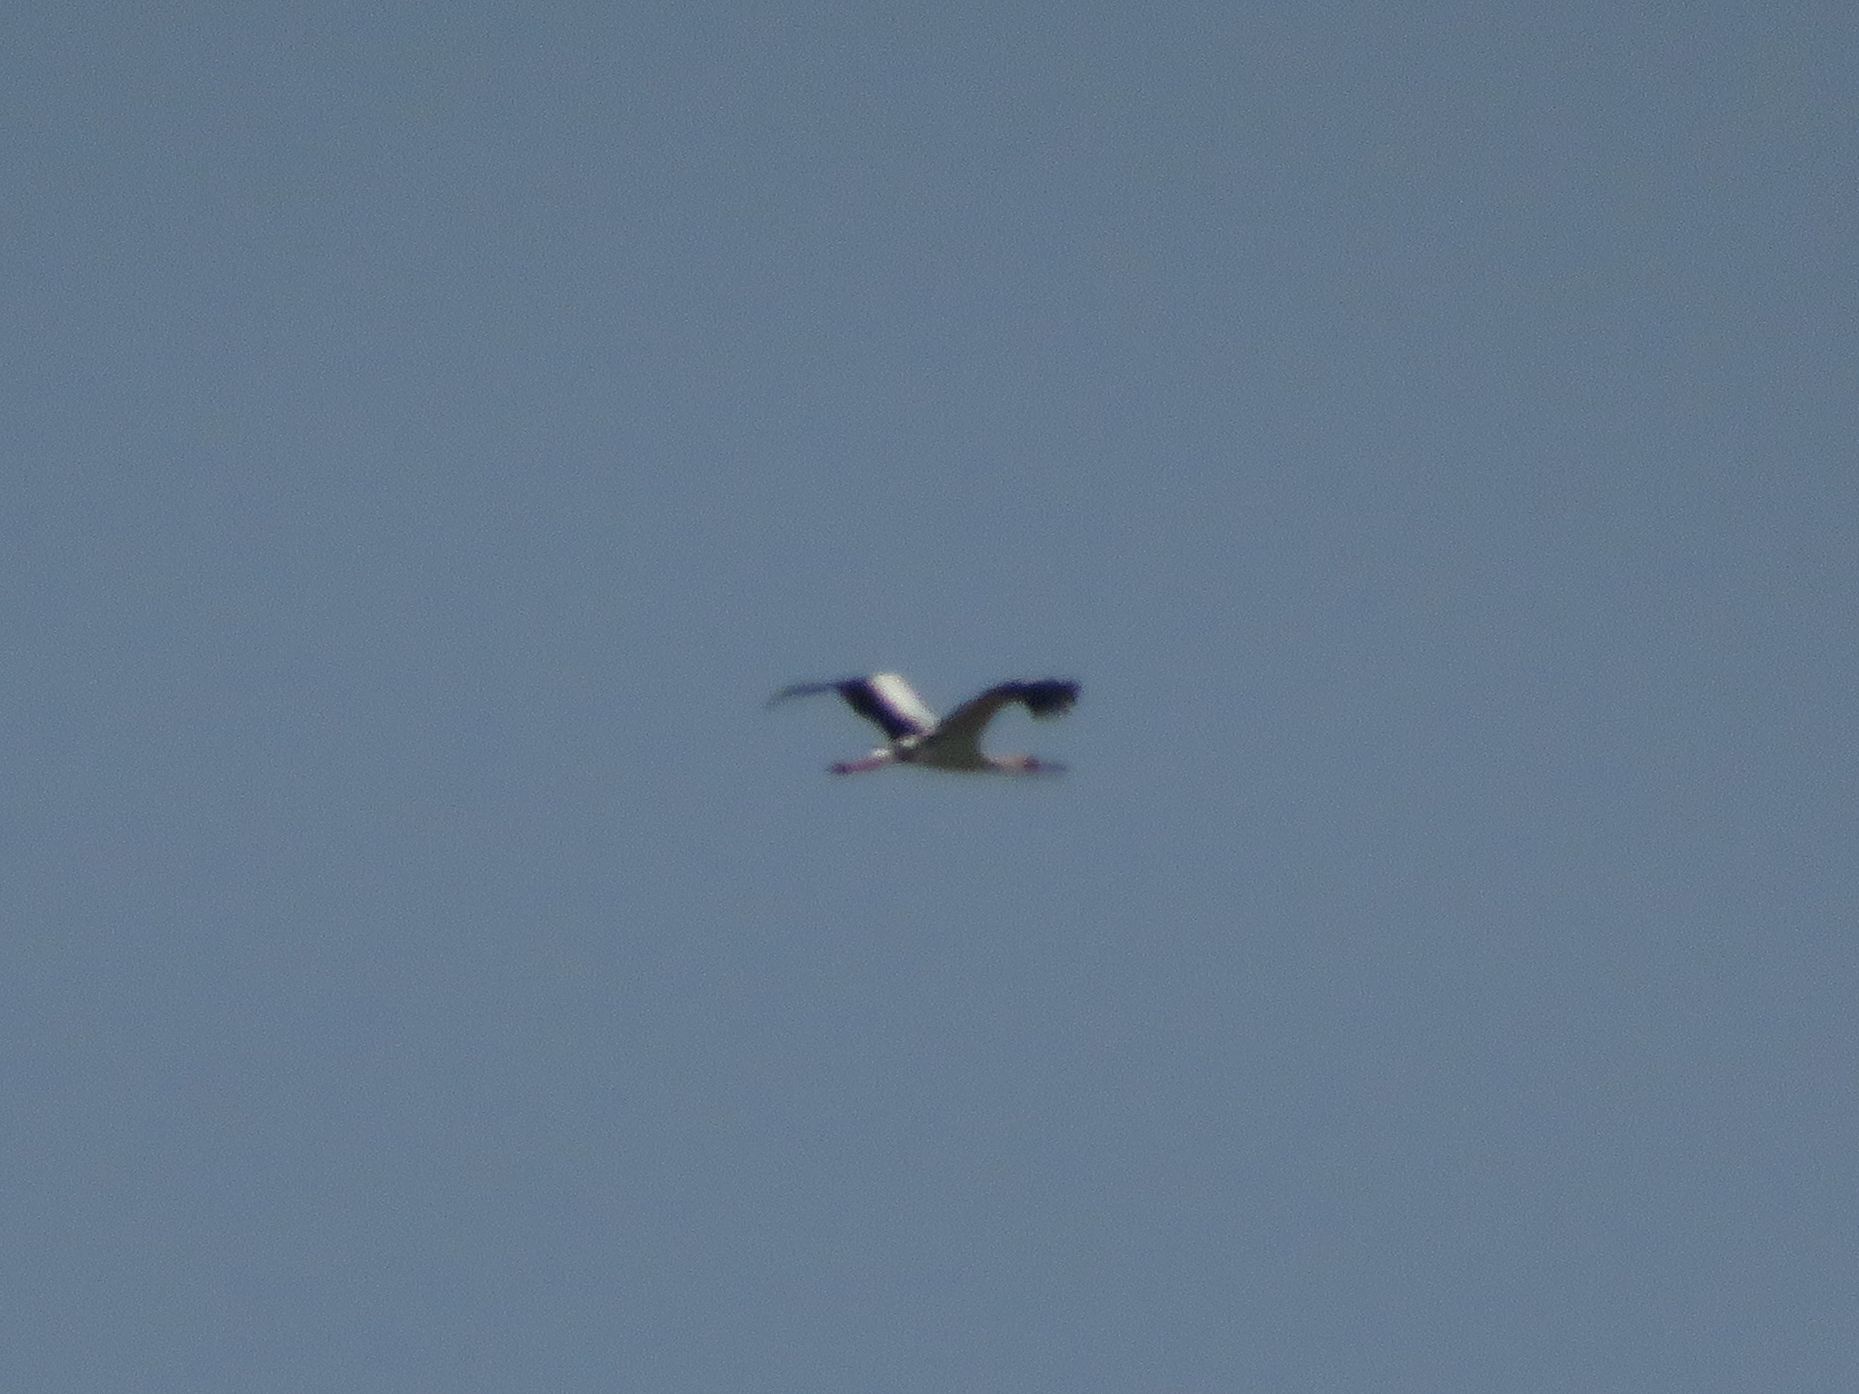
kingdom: Animalia
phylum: Chordata
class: Aves
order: Ciconiiformes
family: Ciconiidae
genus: Ciconia
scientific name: Ciconia maguari
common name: Maguari stork
